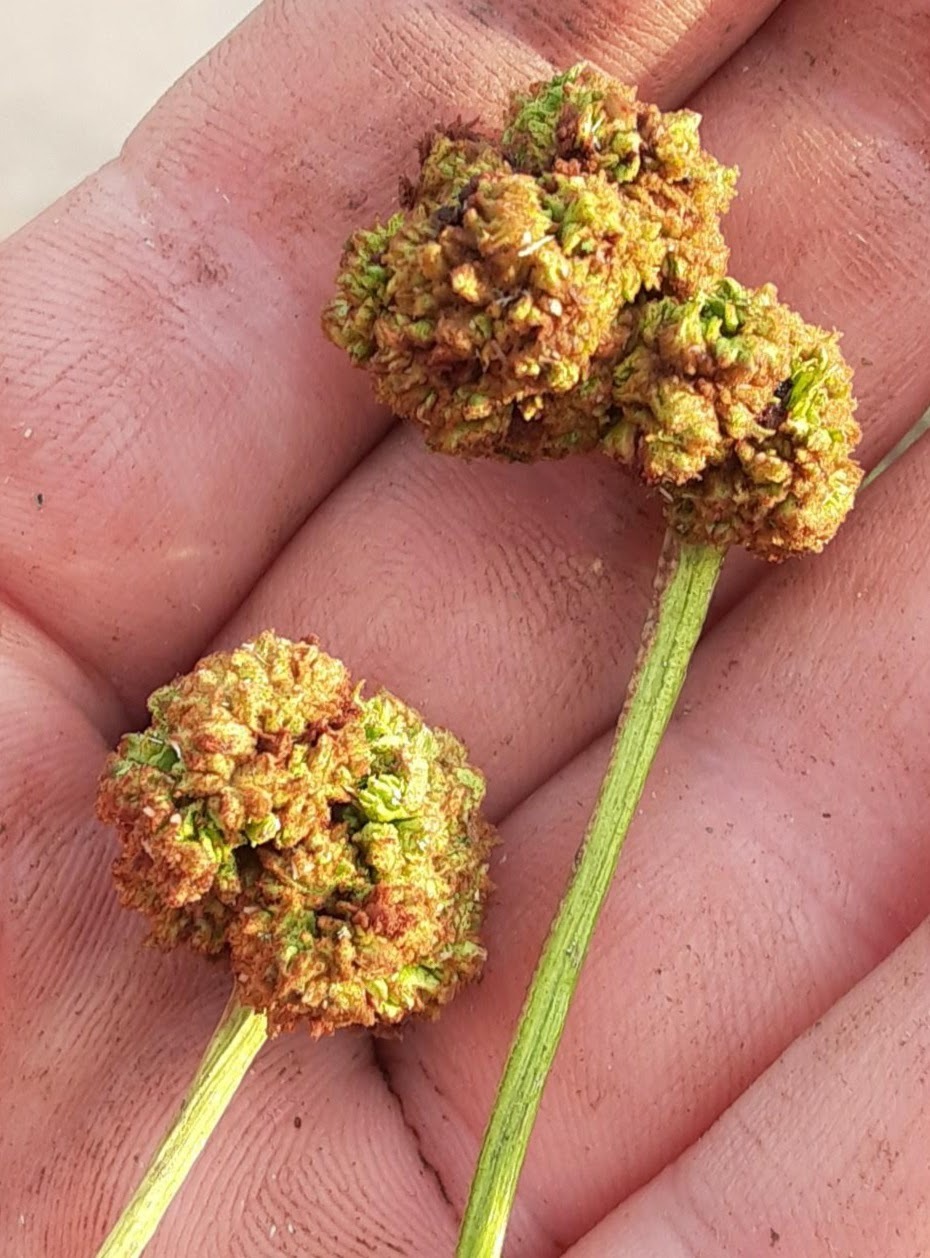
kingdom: Animalia
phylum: Arthropoda
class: Arachnida
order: Trombidiformes
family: Eriophyidae
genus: Aceria
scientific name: Aceria fraxiniflora
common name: Ash flower gall mite
